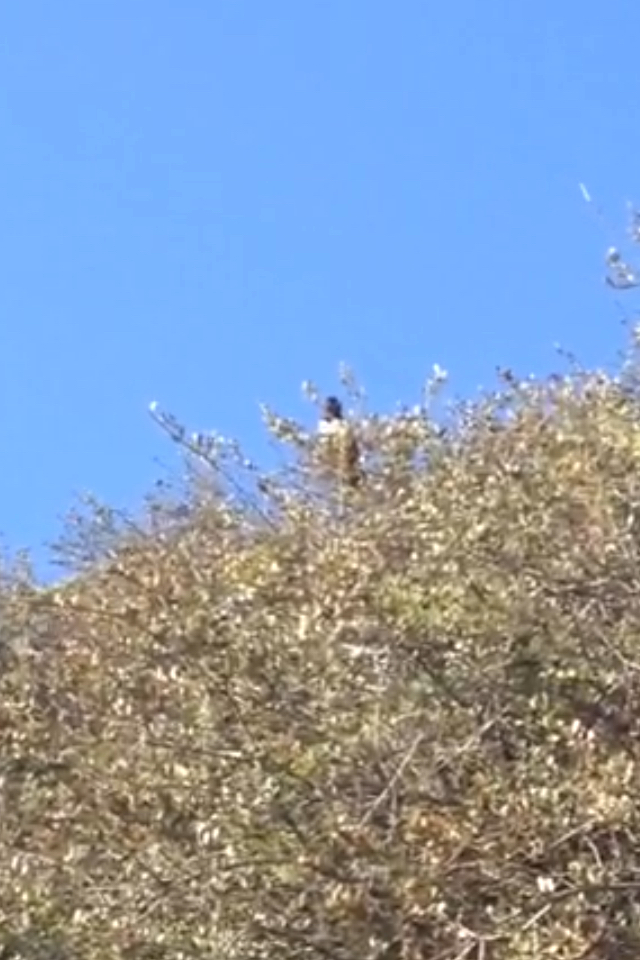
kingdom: Animalia
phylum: Chordata
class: Aves
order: Passeriformes
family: Passerellidae
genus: Pipilo
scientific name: Pipilo maculatus
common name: Spotted towhee
